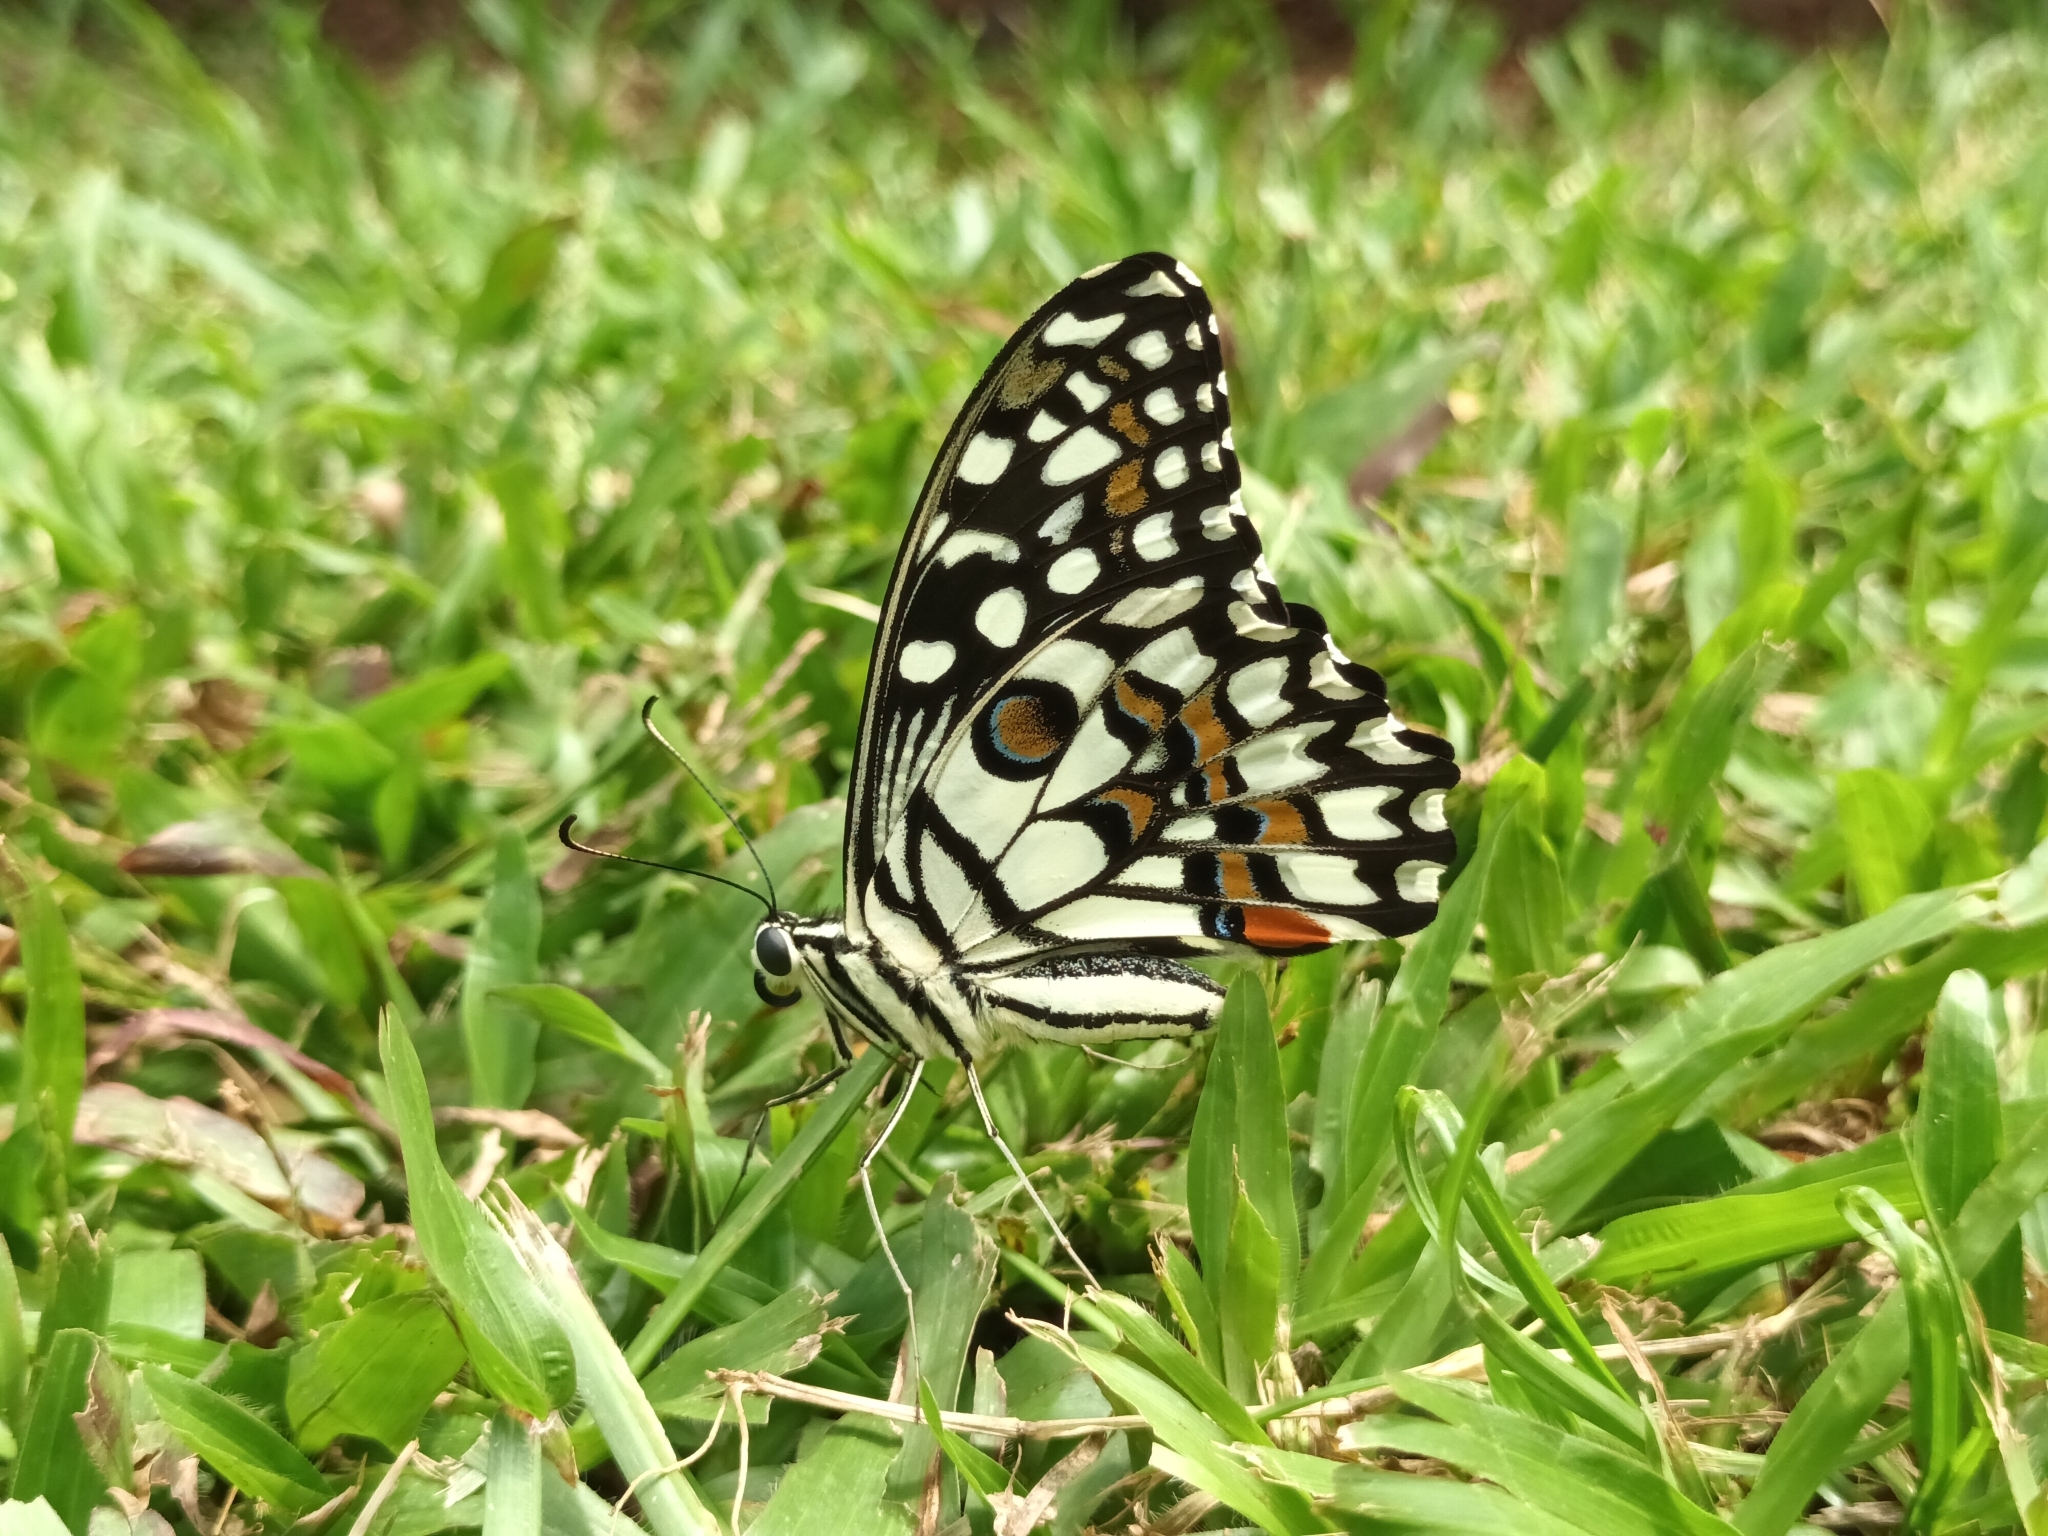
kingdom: Animalia
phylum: Arthropoda
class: Insecta
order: Lepidoptera
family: Papilionidae
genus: Papilio
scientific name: Papilio demoleus
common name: Lime butterfly
